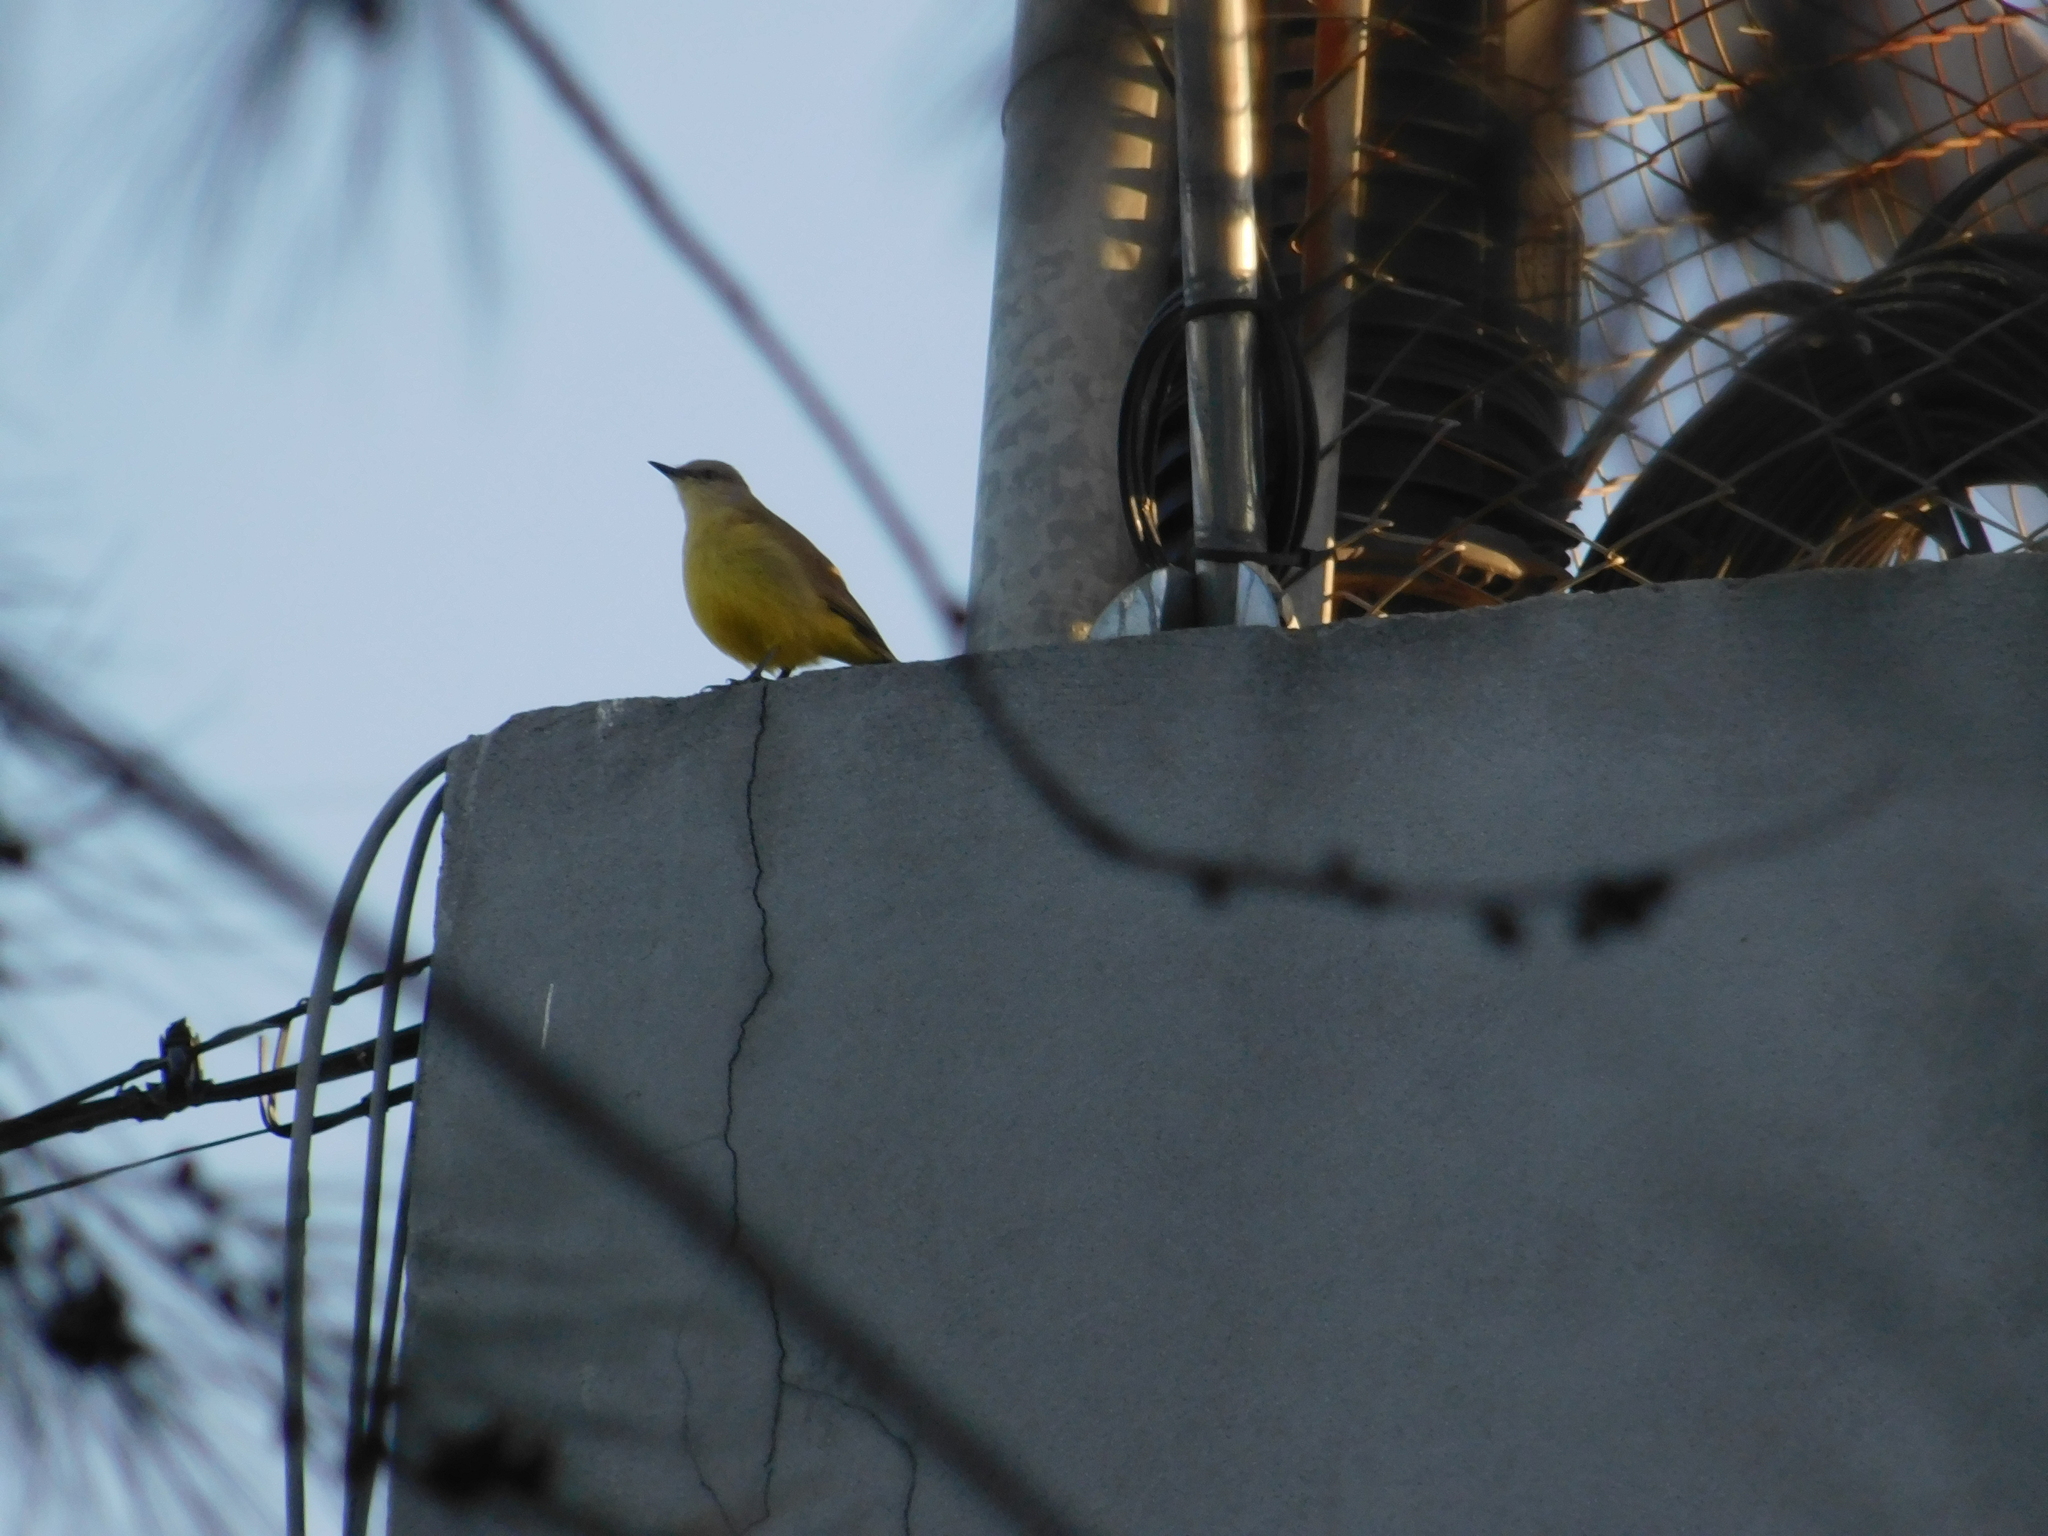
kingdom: Animalia
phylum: Chordata
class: Aves
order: Passeriformes
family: Tyrannidae
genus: Machetornis
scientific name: Machetornis rixosa
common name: Cattle tyrant
